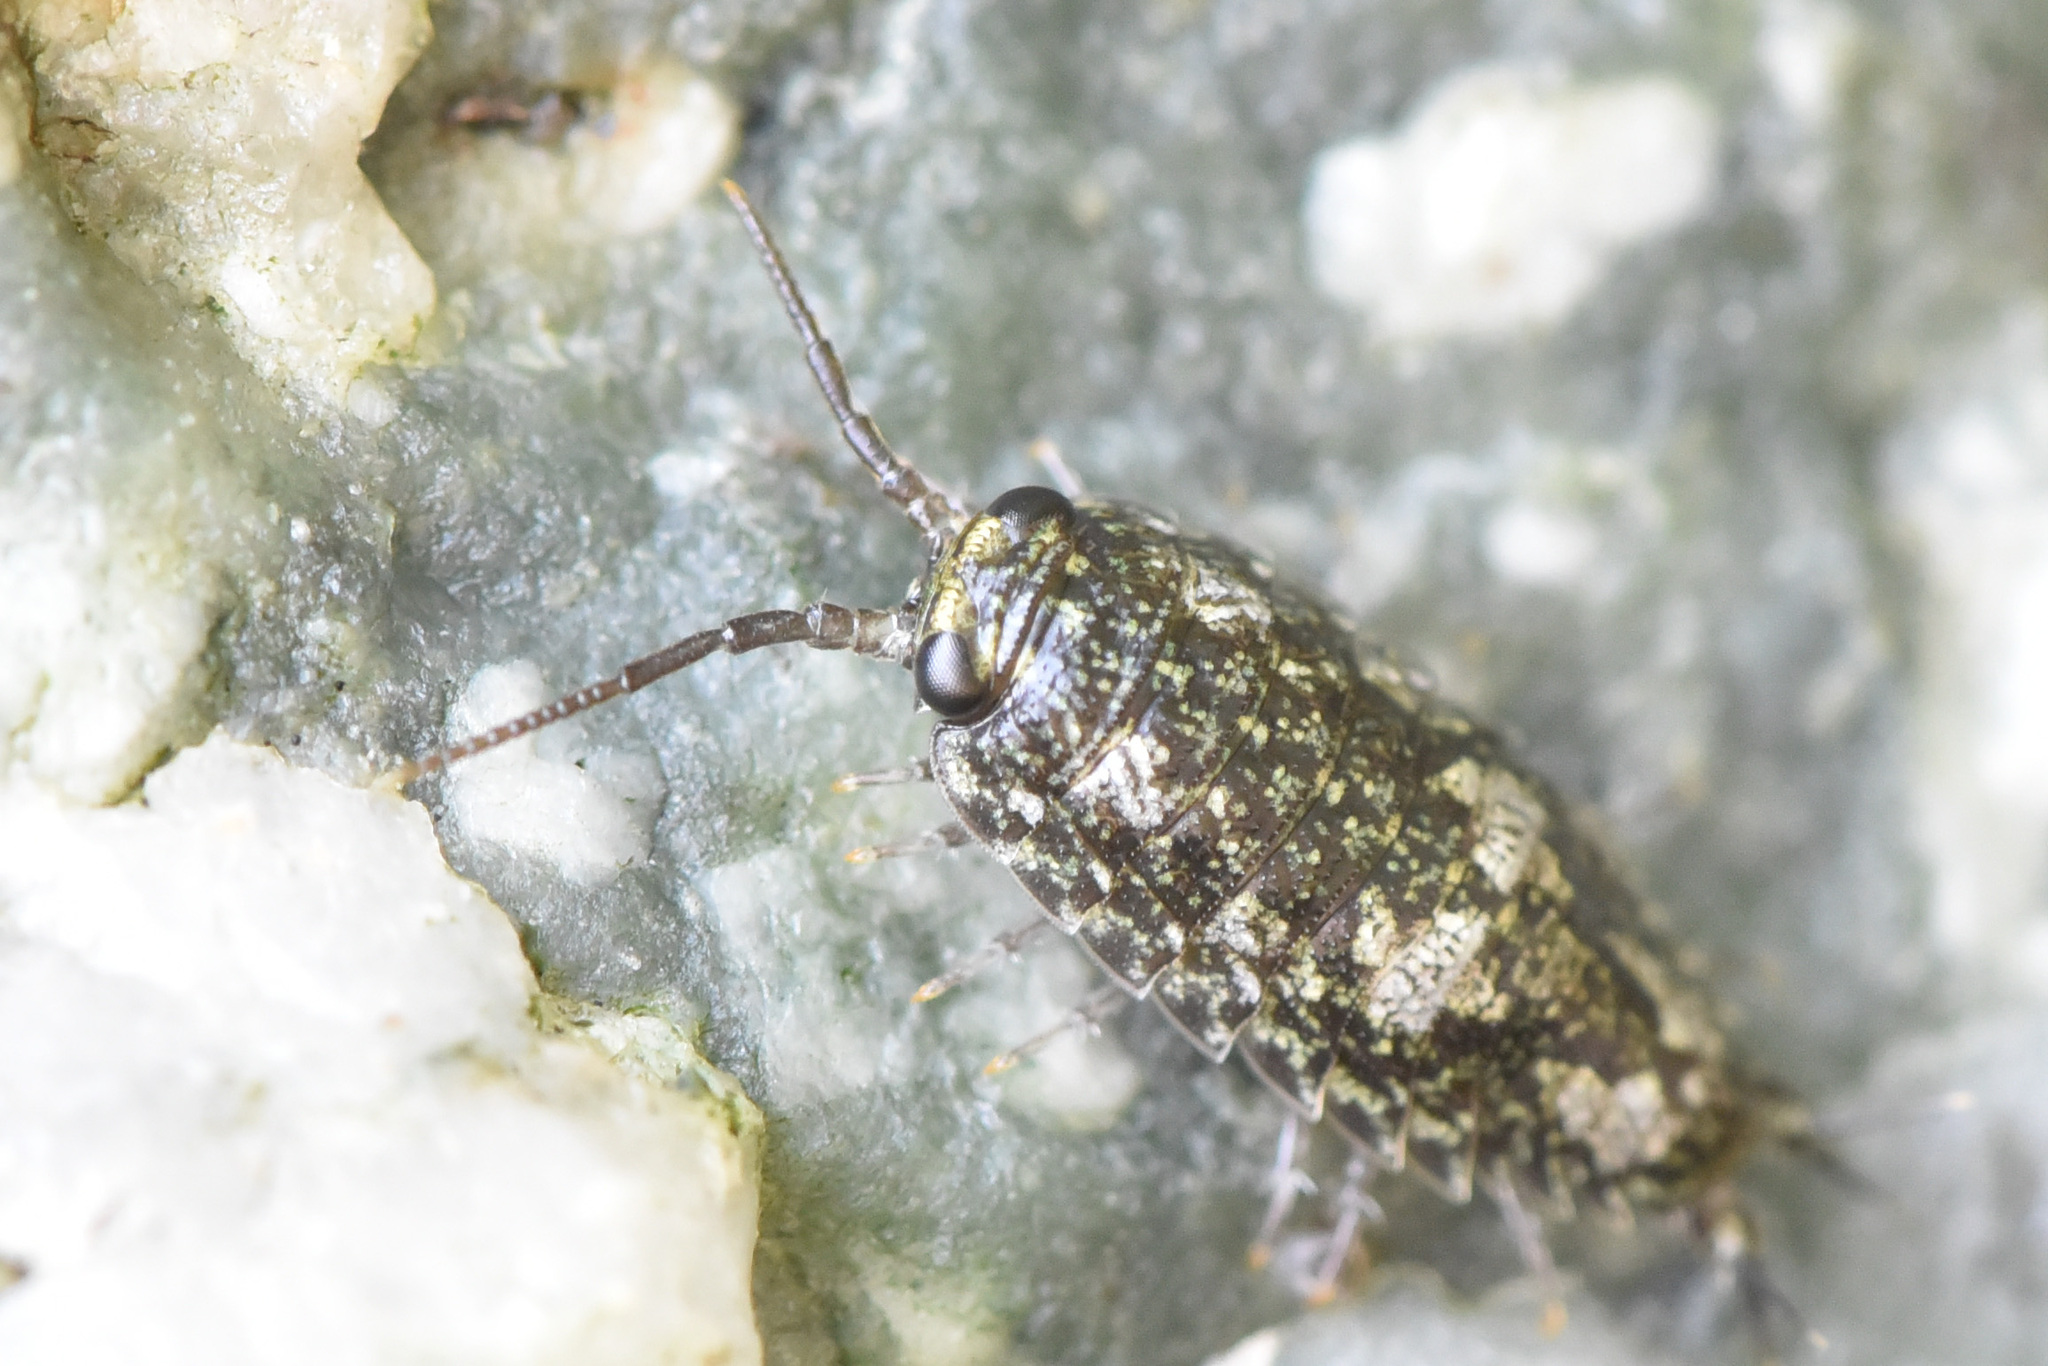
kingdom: Animalia
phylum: Arthropoda
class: Malacostraca
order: Isopoda
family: Ligiidae
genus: Ligia
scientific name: Ligia pallasii
